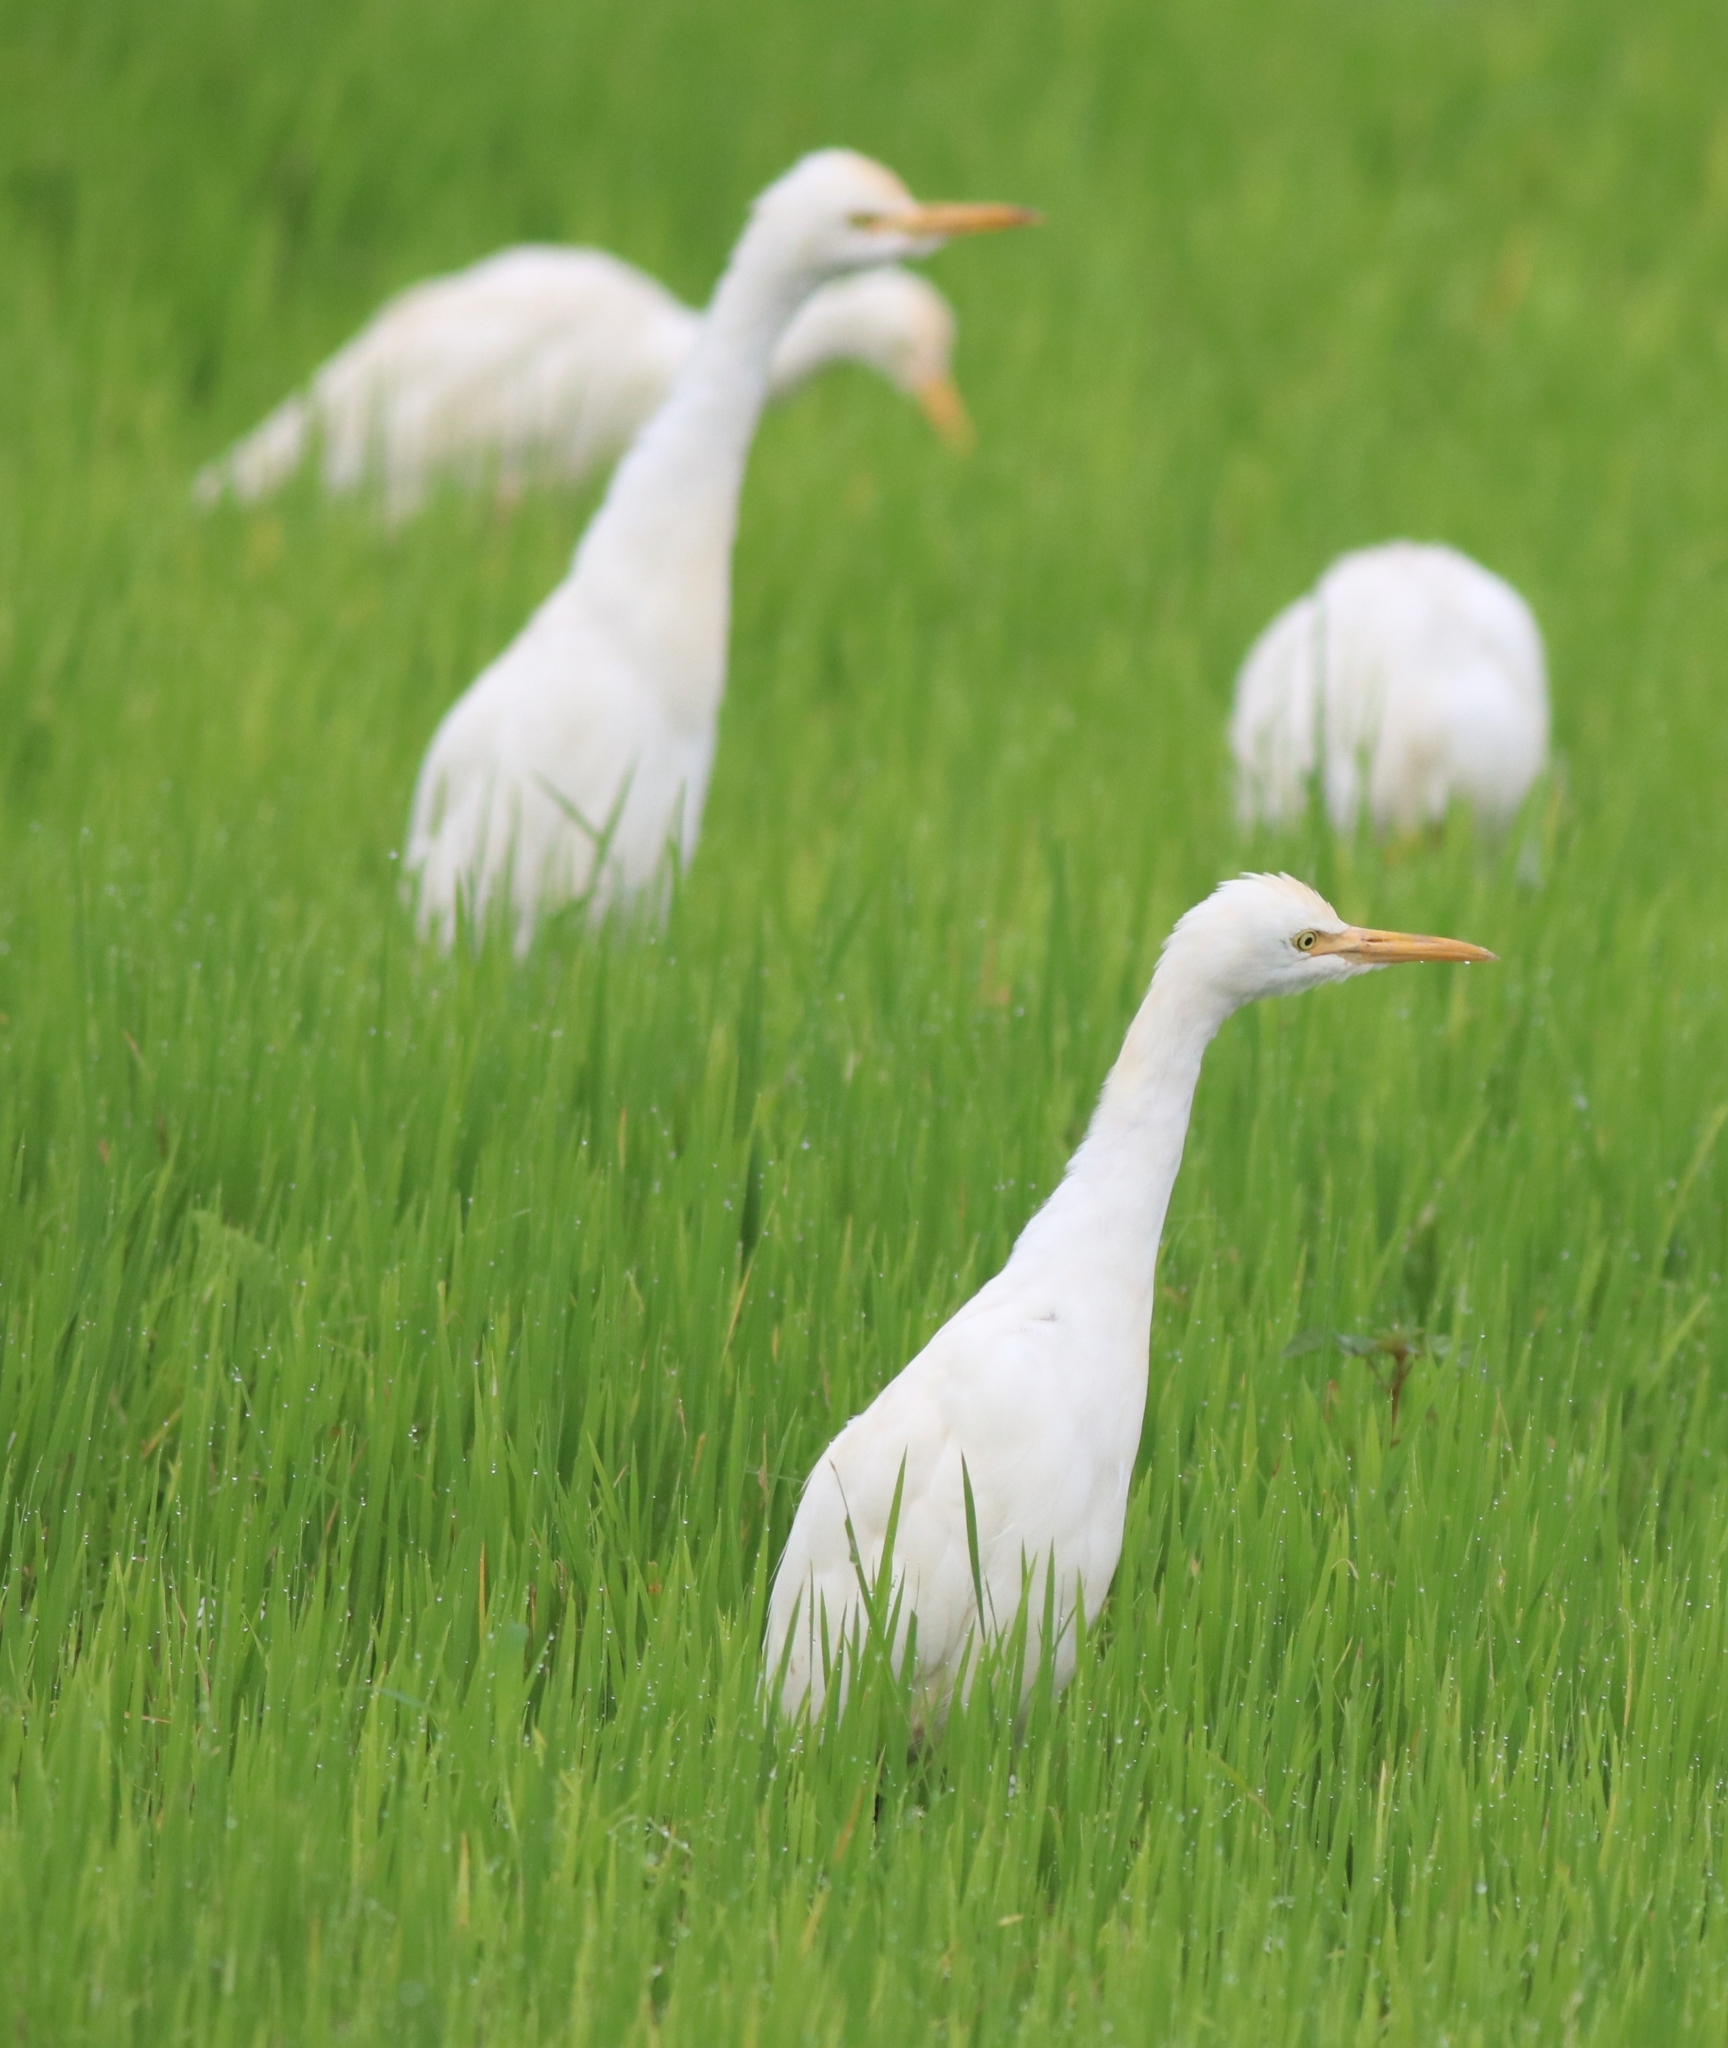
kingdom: Animalia
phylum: Chordata
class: Aves
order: Pelecaniformes
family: Ardeidae
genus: Bubulcus
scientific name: Bubulcus coromandus
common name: Eastern cattle egret
